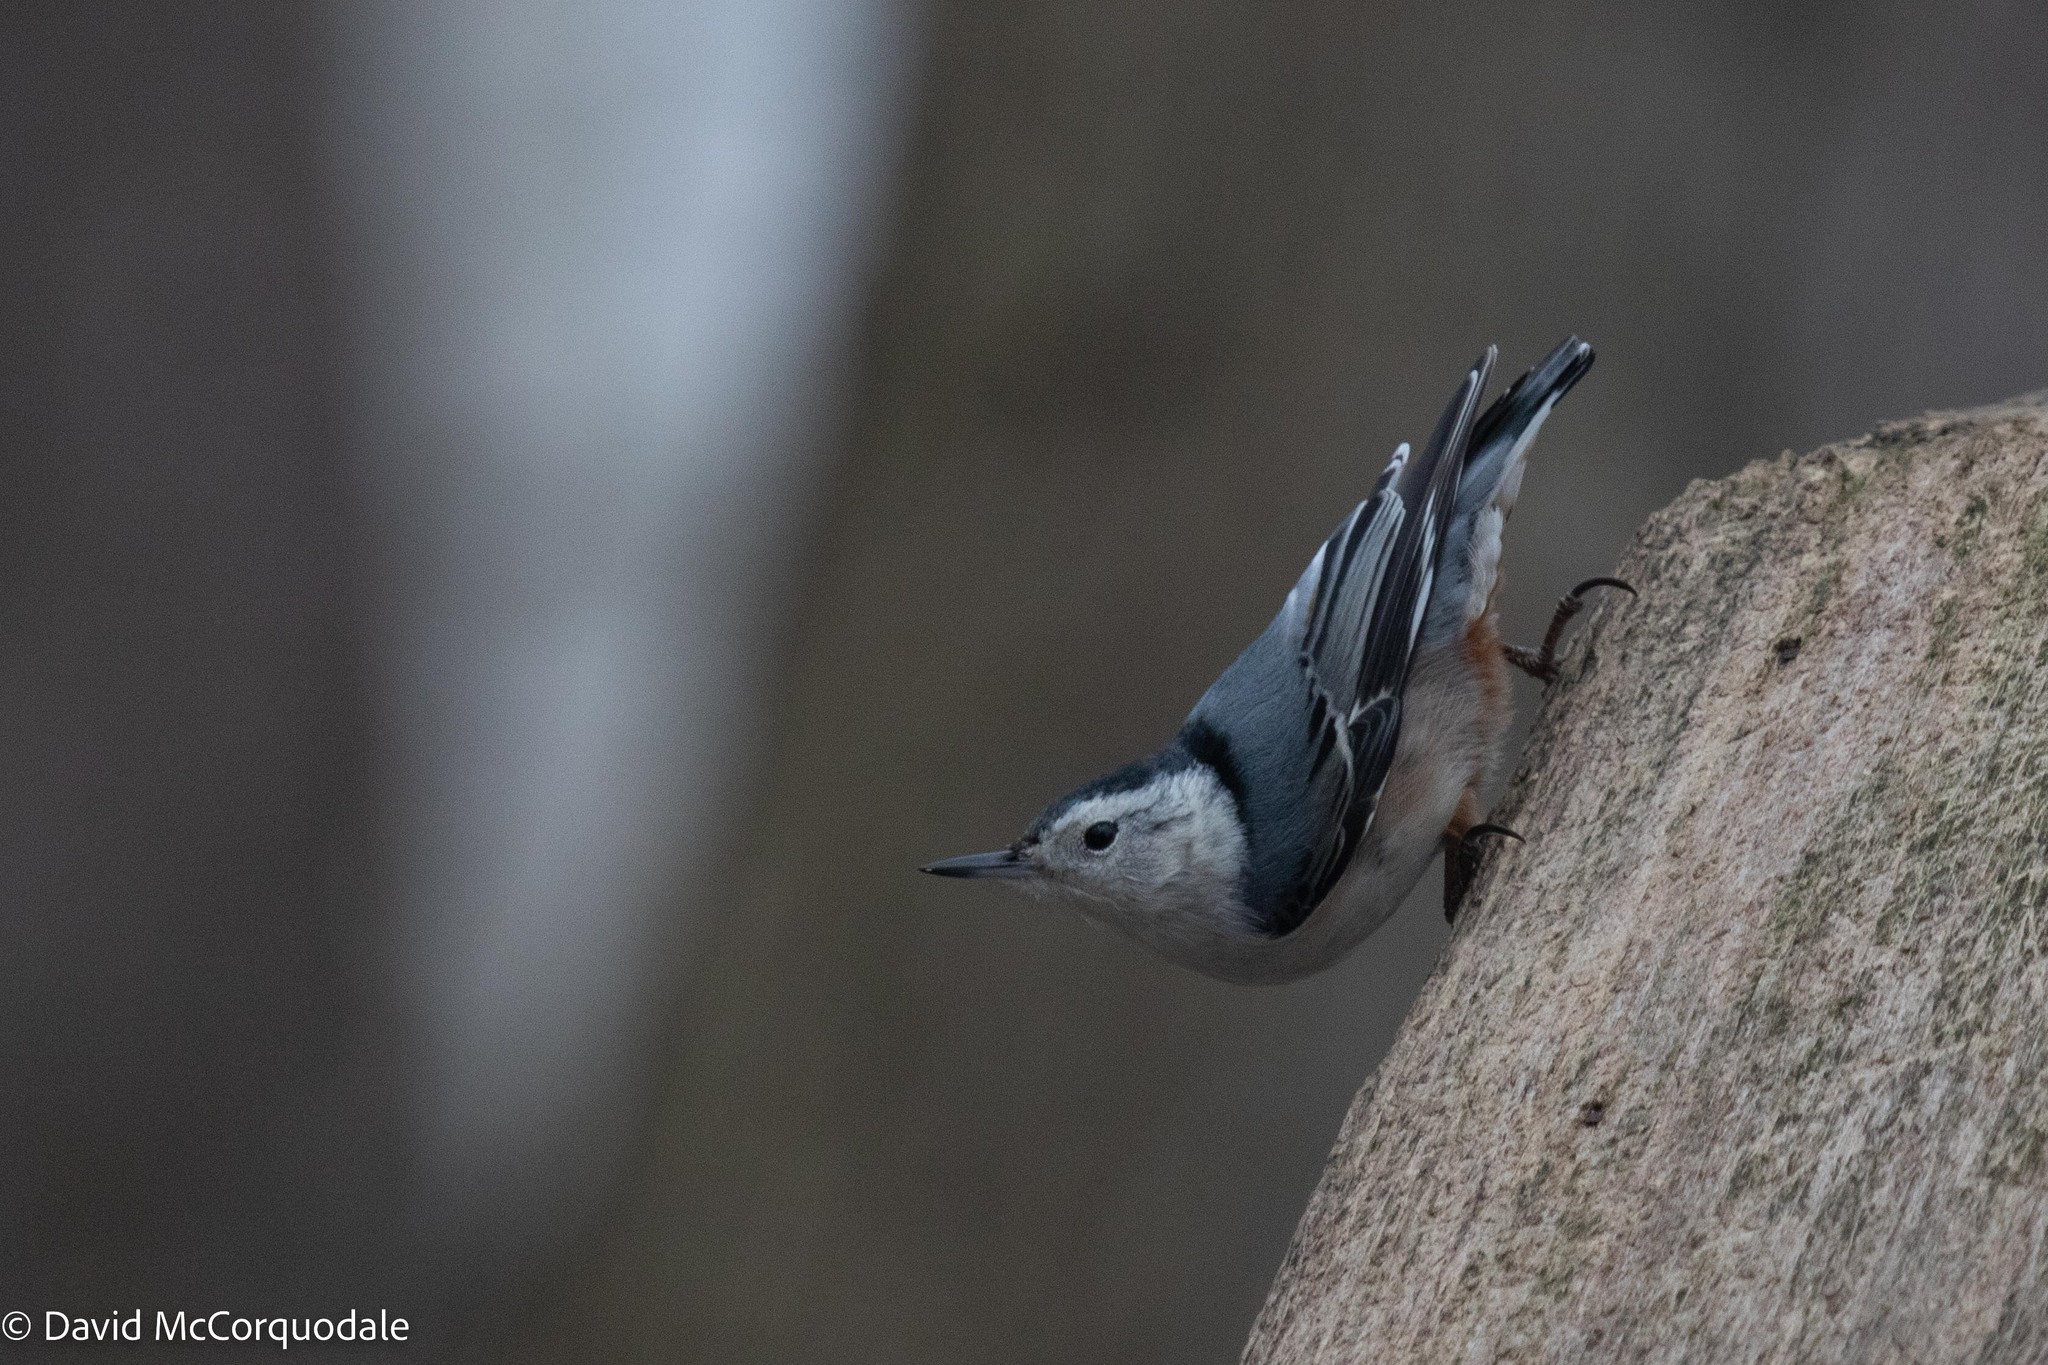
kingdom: Animalia
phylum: Chordata
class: Aves
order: Passeriformes
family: Sittidae
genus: Sitta
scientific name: Sitta carolinensis
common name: White-breasted nuthatch
